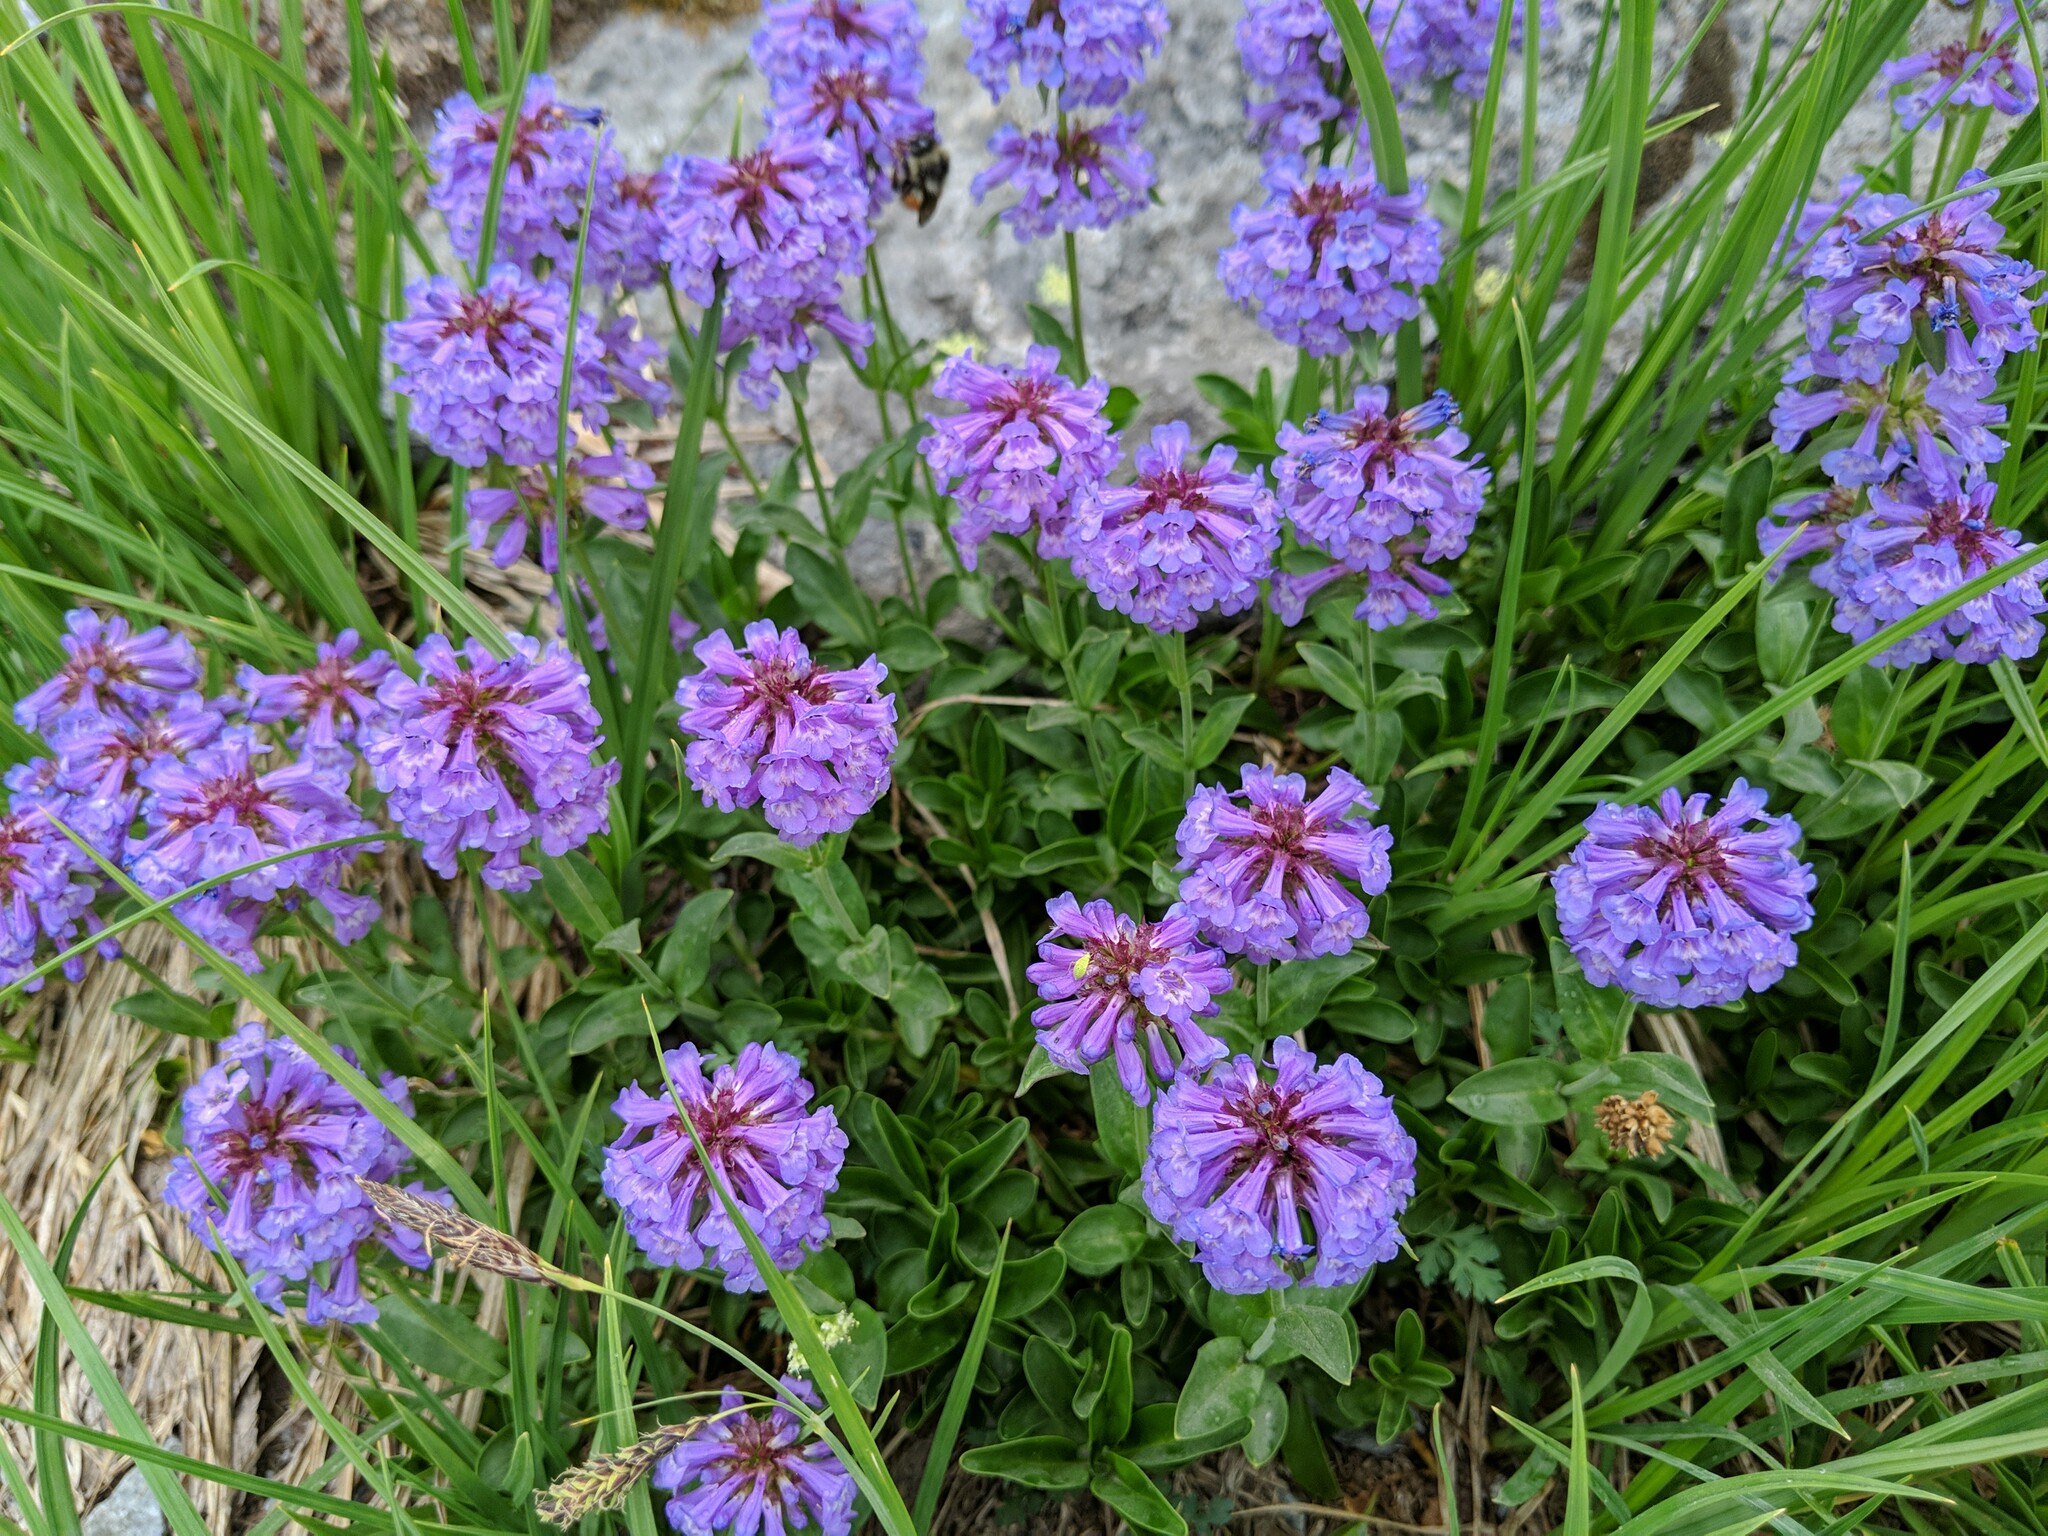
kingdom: Plantae
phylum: Tracheophyta
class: Magnoliopsida
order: Lamiales
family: Plantaginaceae
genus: Penstemon
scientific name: Penstemon procerus
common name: Small-flower penstemon
